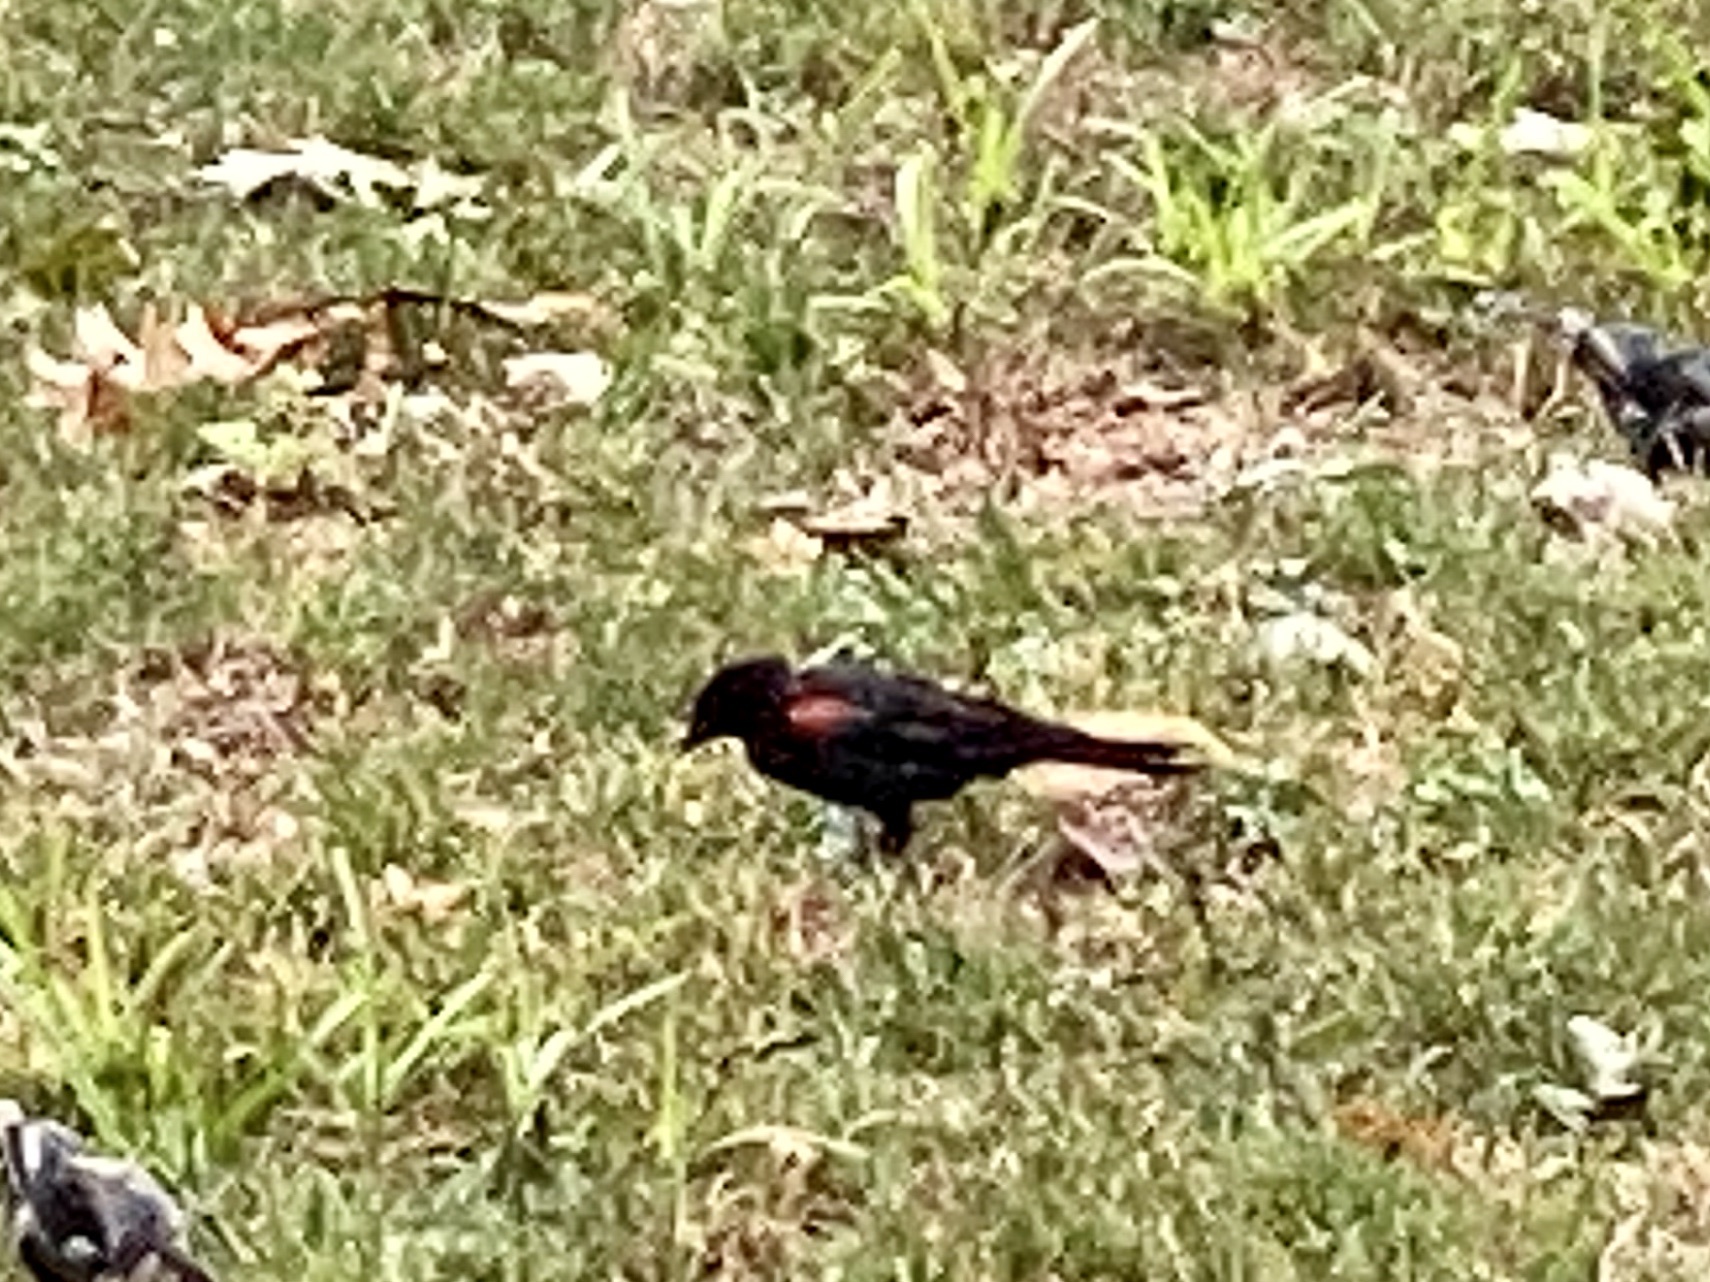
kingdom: Animalia
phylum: Chordata
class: Aves
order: Passeriformes
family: Icteridae
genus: Agelaius
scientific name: Agelaius phoeniceus
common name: Red-winged blackbird
